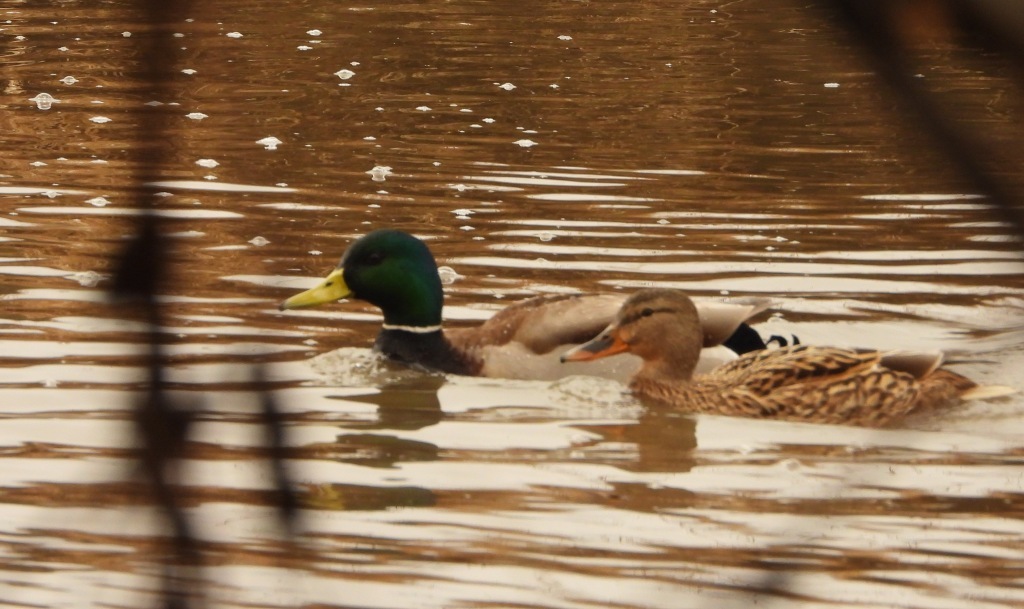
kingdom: Animalia
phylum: Chordata
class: Aves
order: Anseriformes
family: Anatidae
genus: Anas
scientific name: Anas platyrhynchos
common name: Mallard
